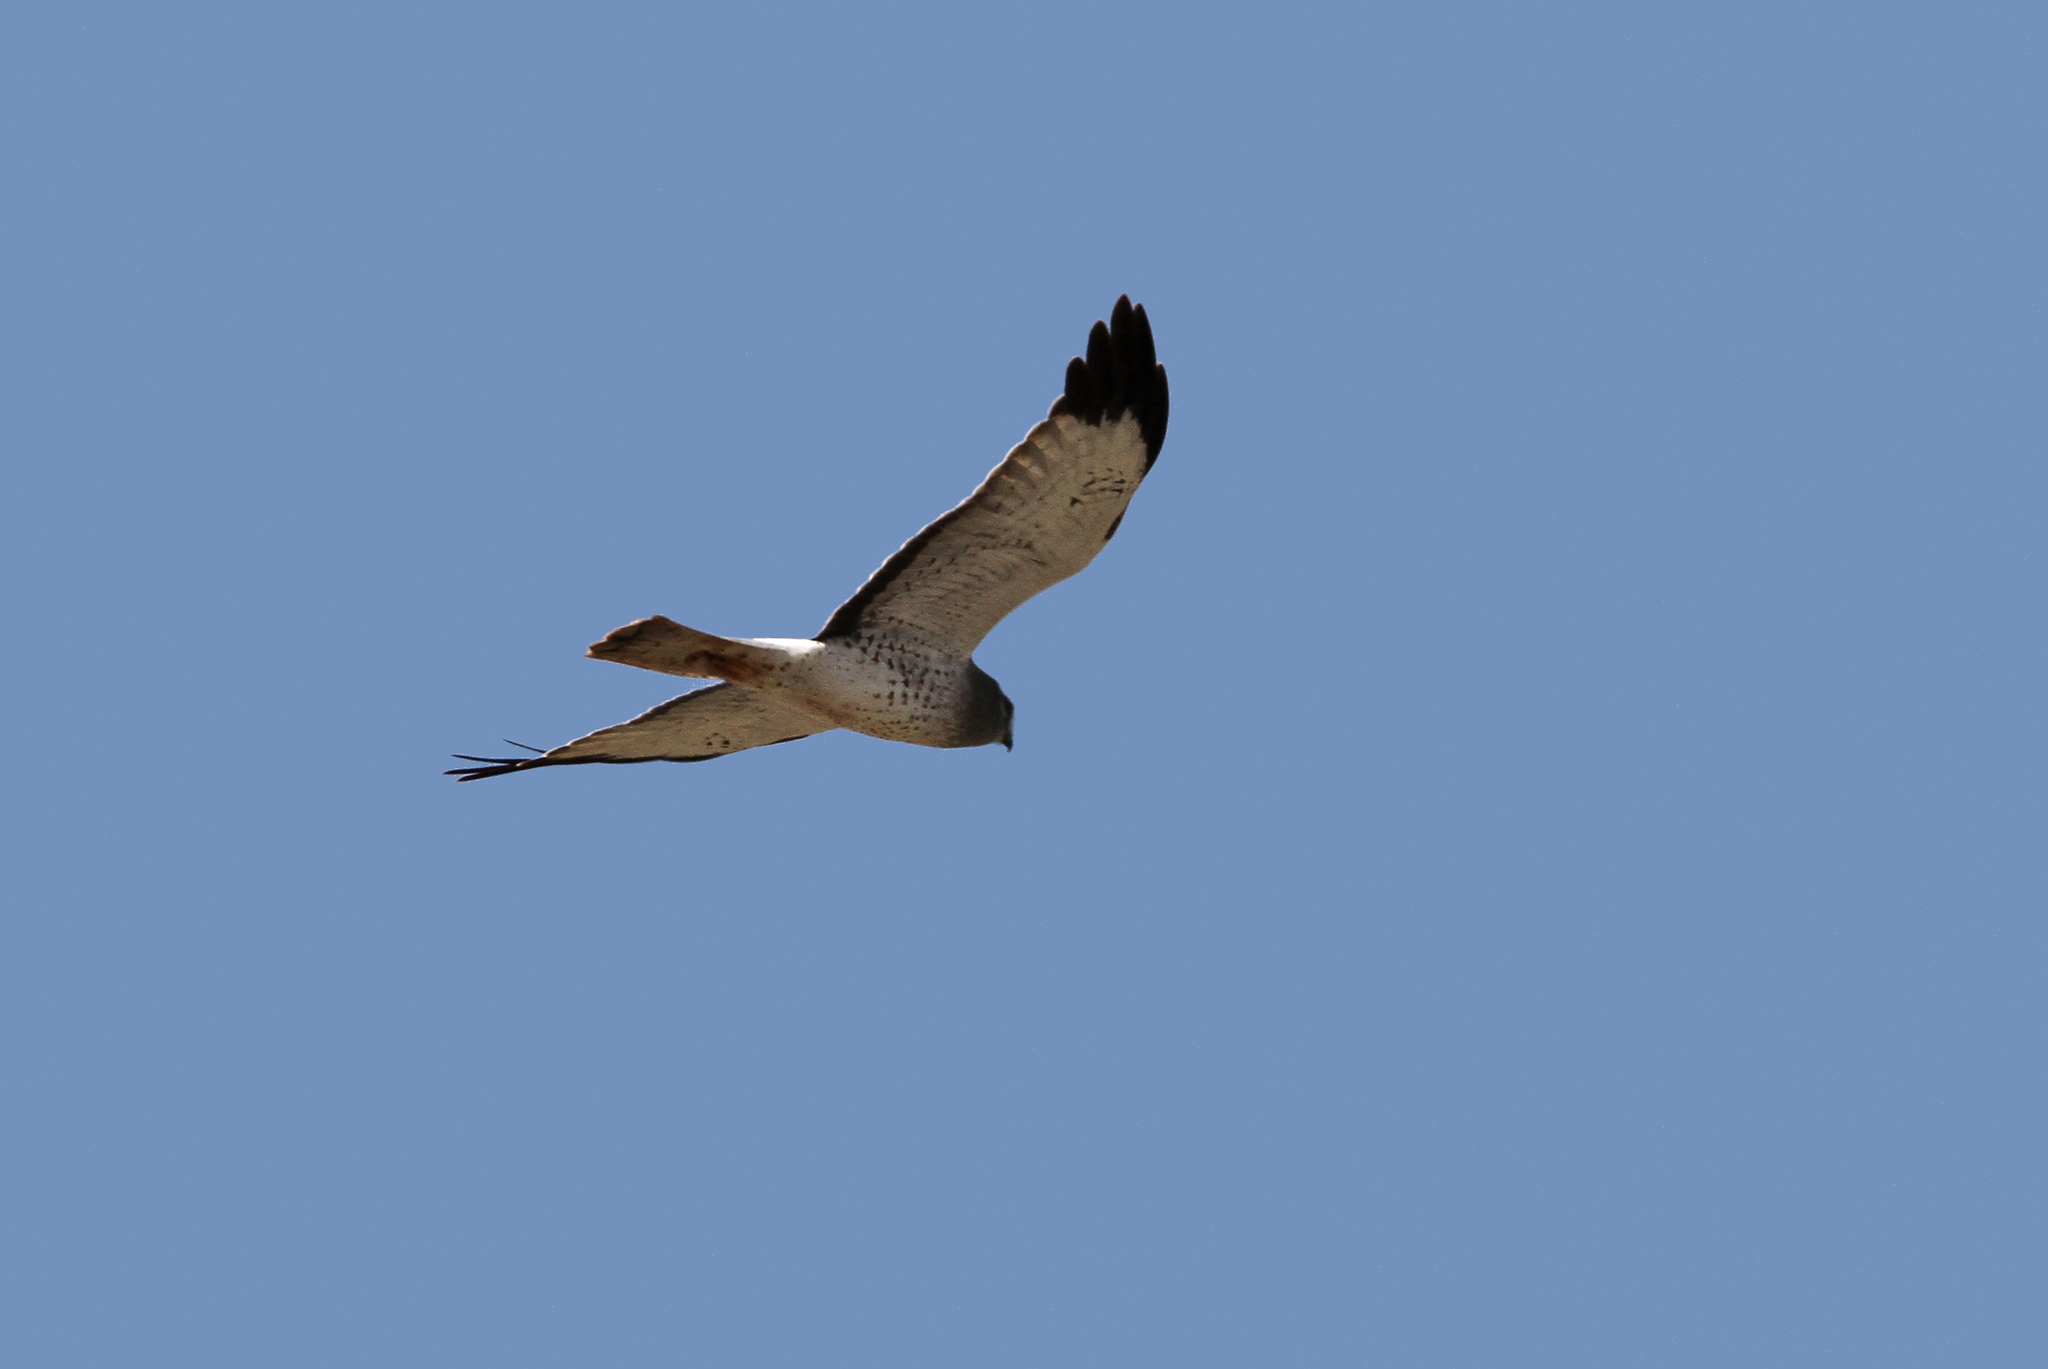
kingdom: Animalia
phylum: Chordata
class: Aves
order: Accipitriformes
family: Accipitridae
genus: Circus
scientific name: Circus cyaneus
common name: Hen harrier
